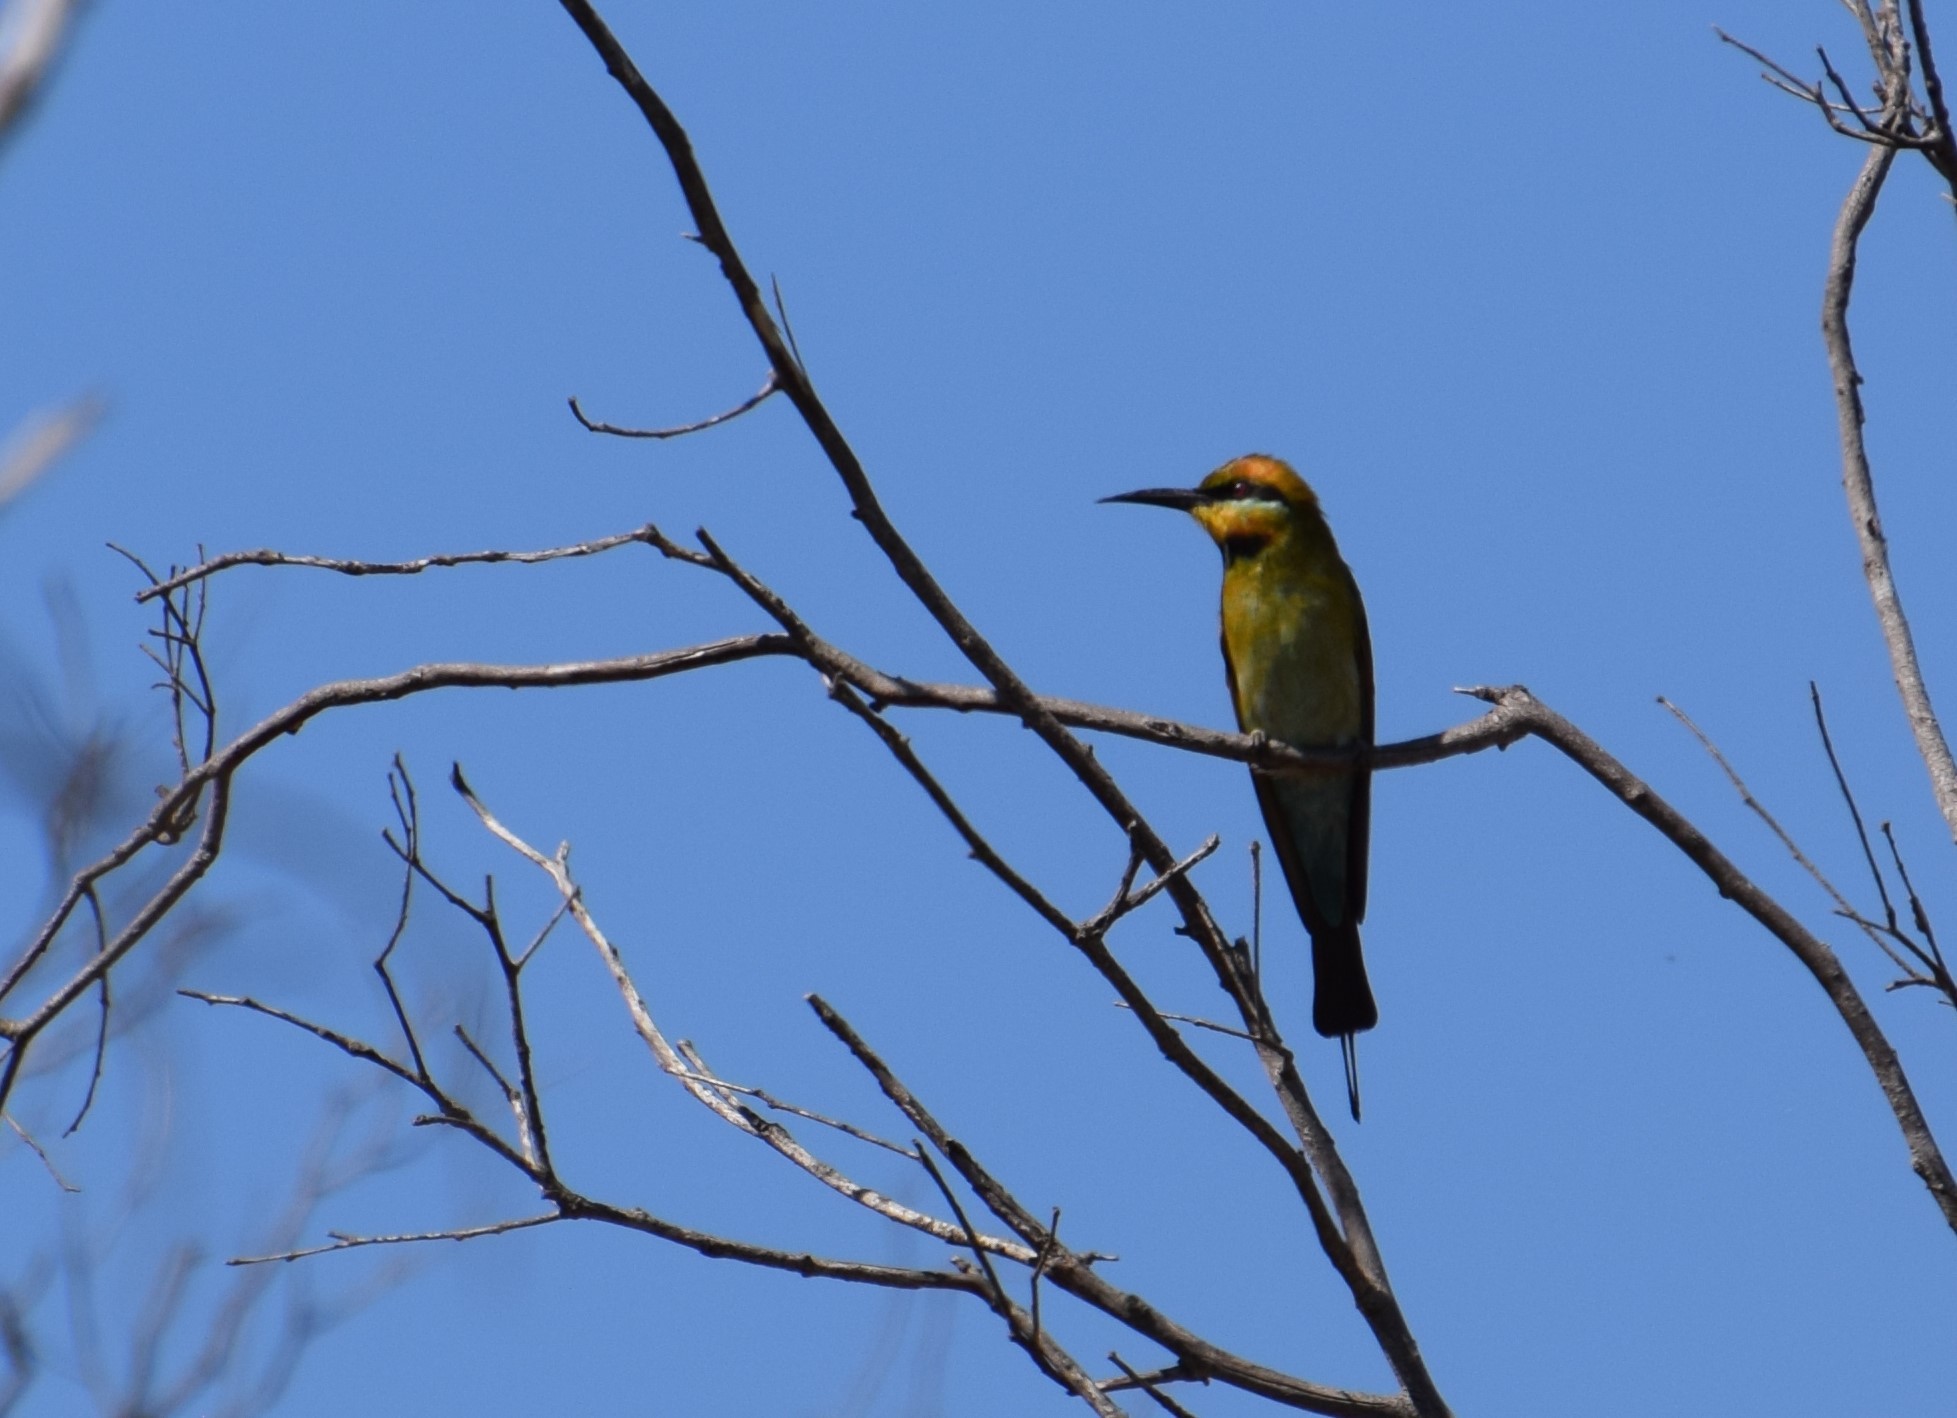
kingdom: Animalia
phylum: Chordata
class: Aves
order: Coraciiformes
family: Meropidae
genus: Merops
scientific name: Merops ornatus
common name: Rainbow bee-eater
